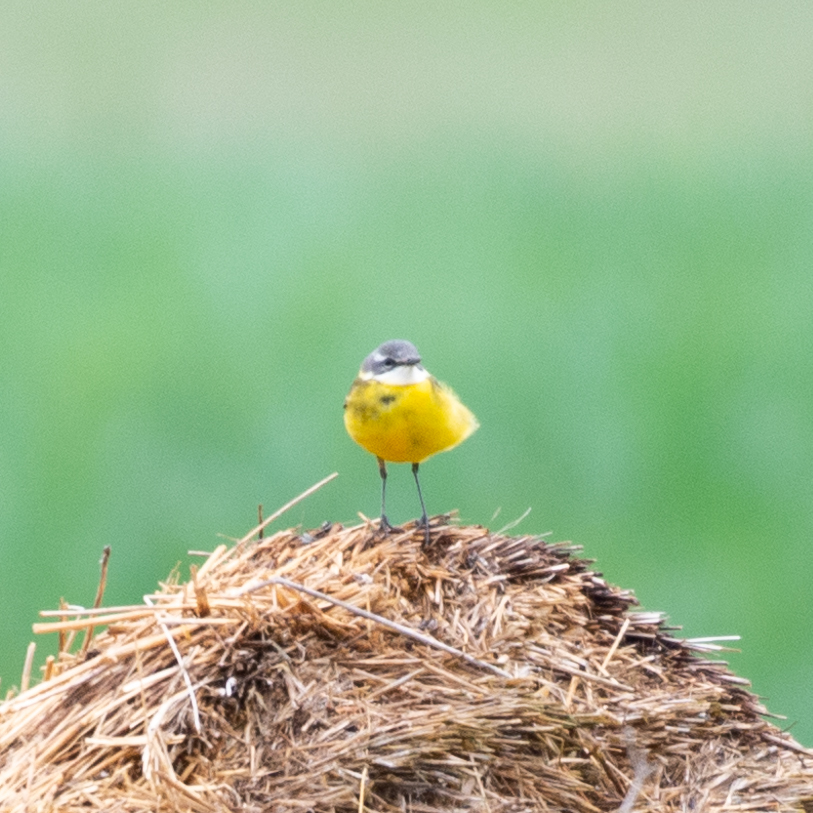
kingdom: Animalia
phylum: Chordata
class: Aves
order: Passeriformes
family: Motacillidae
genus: Motacilla
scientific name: Motacilla flava
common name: Western yellow wagtail
